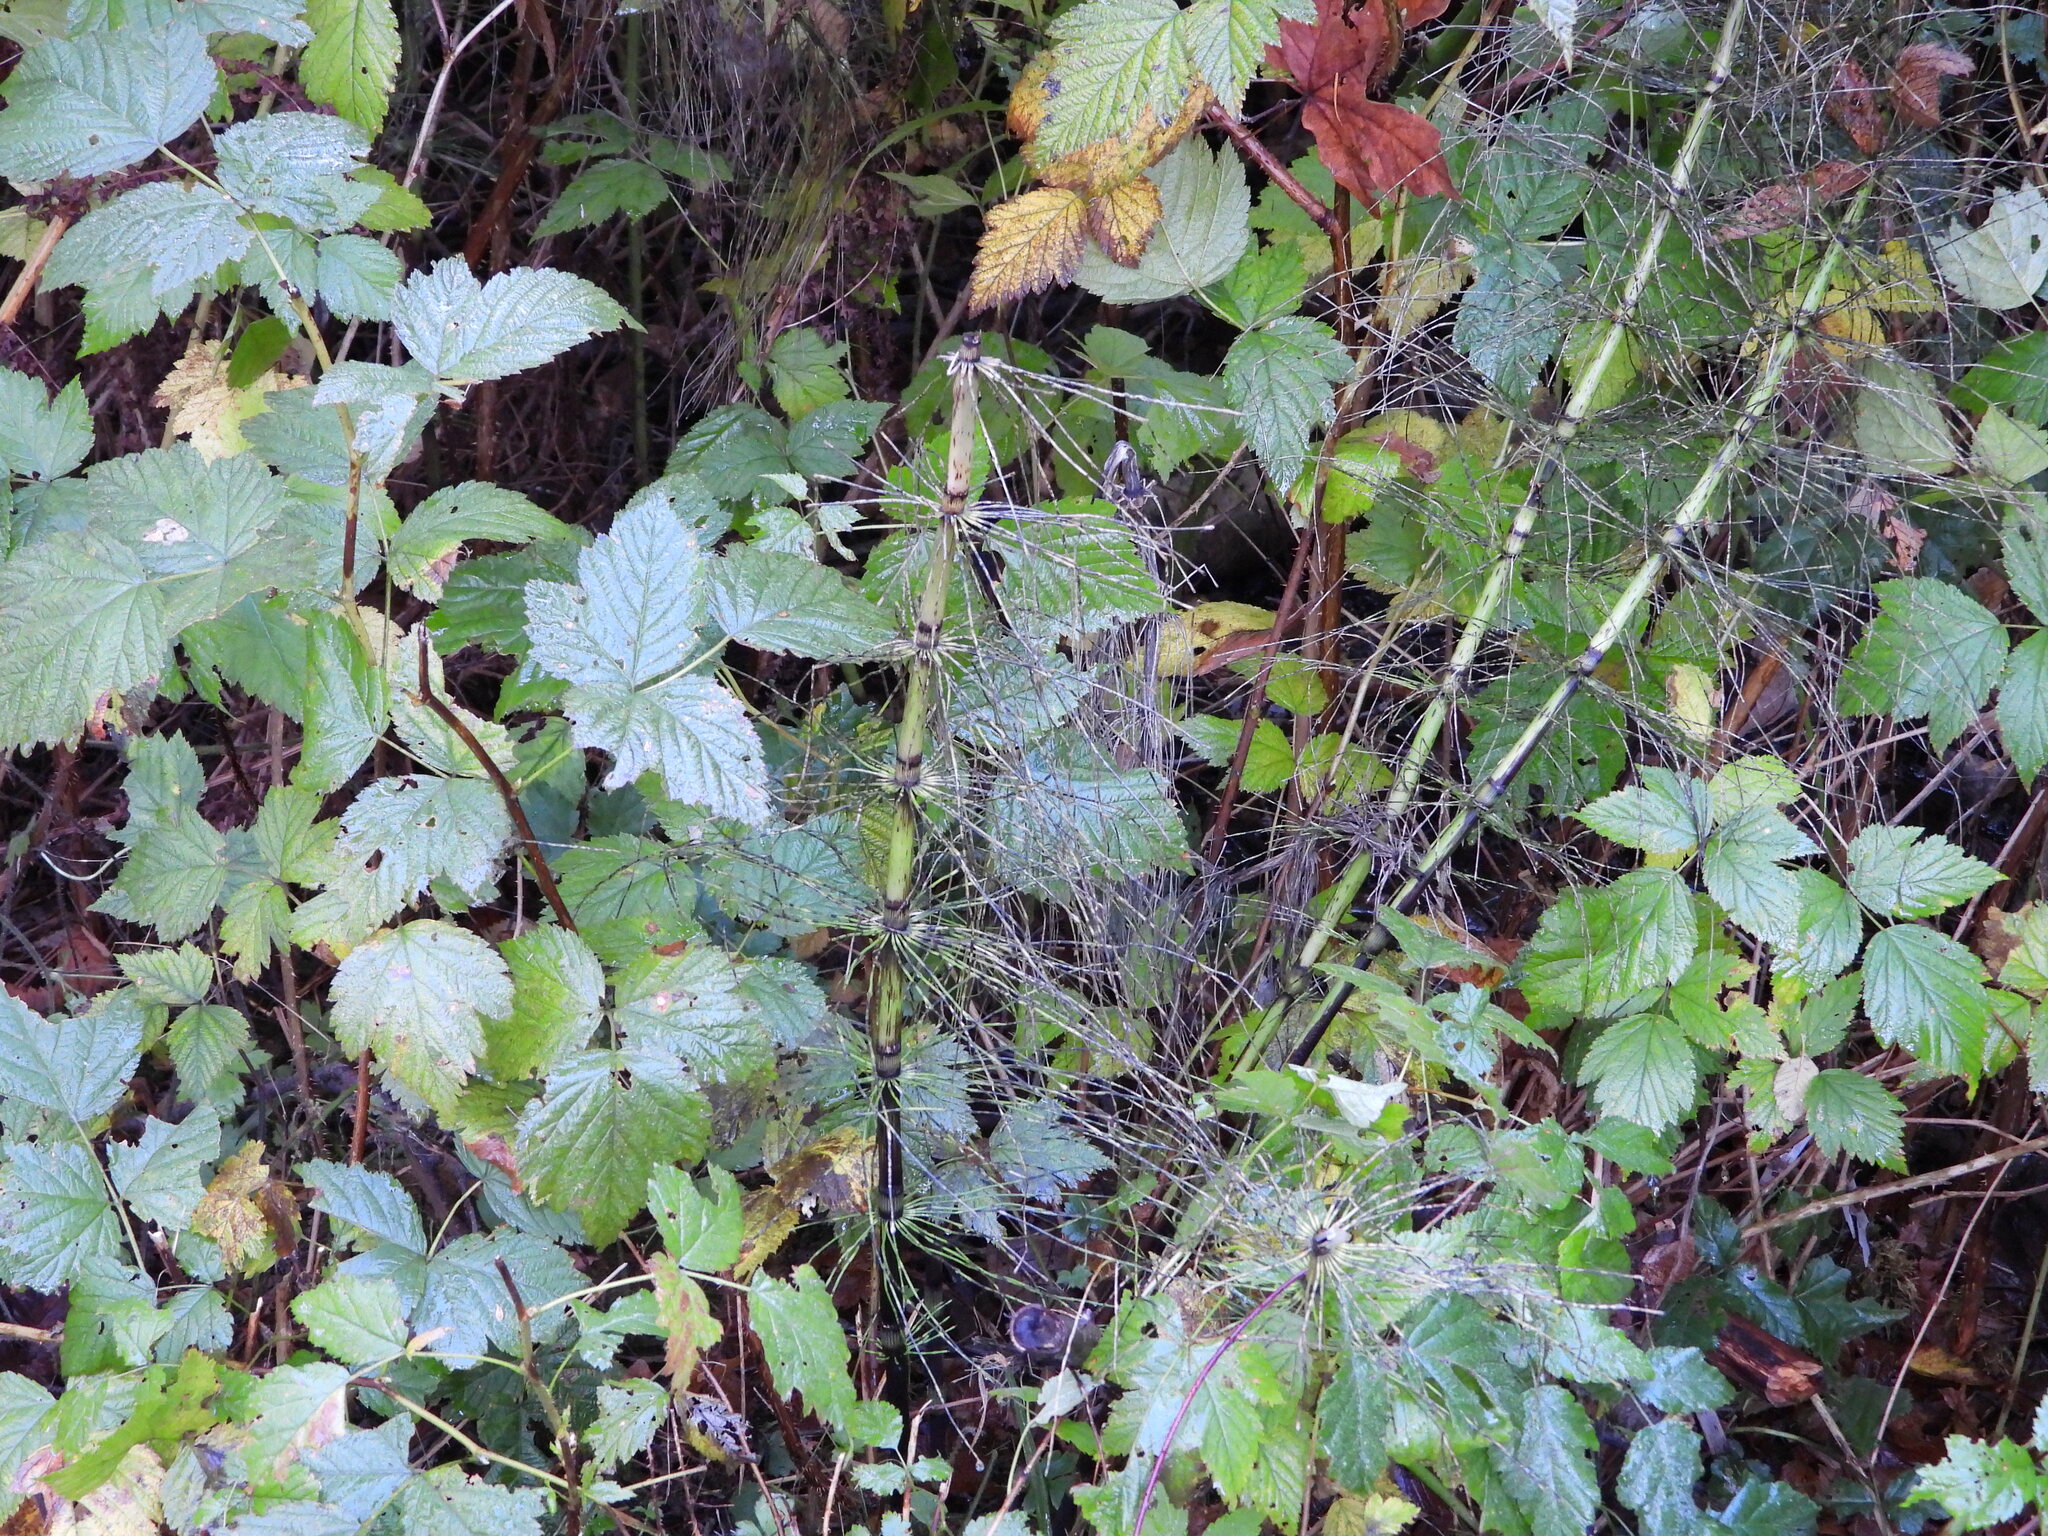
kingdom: Plantae
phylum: Tracheophyta
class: Polypodiopsida
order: Equisetales
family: Equisetaceae
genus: Equisetum
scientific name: Equisetum telmateia
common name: Great horsetail
